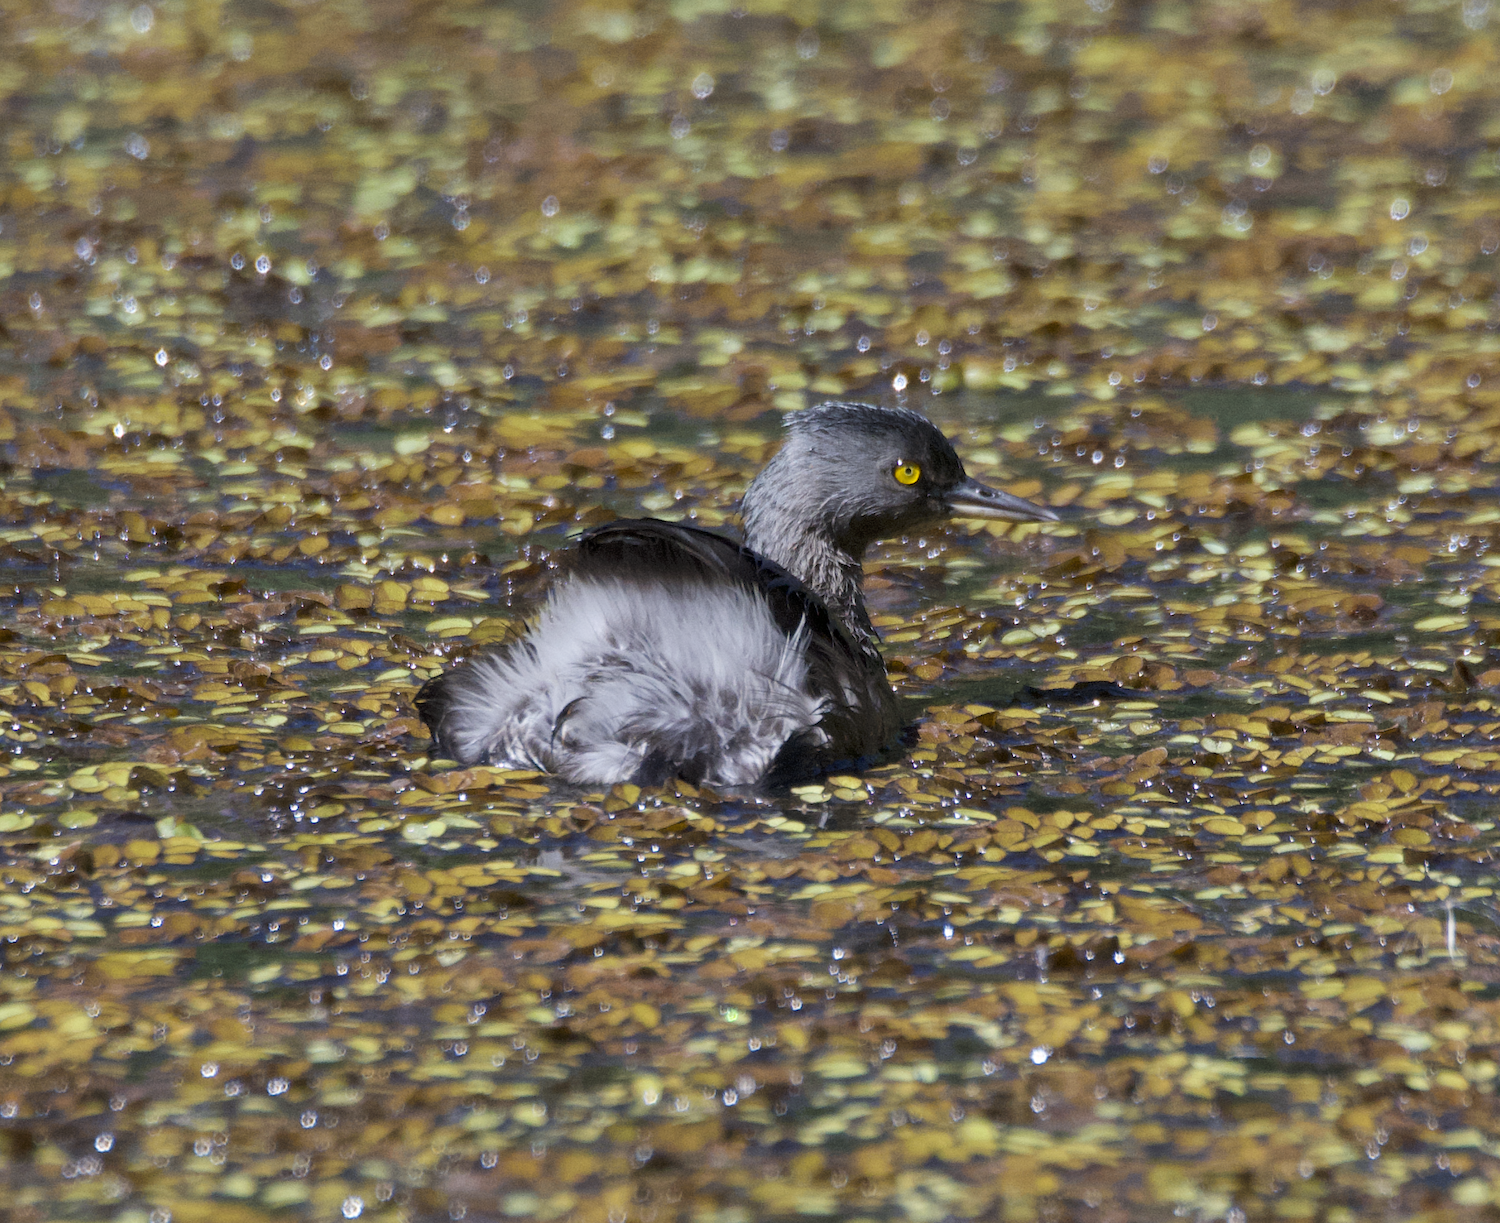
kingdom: Animalia
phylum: Chordata
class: Aves
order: Podicipediformes
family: Podicipedidae
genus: Tachybaptus
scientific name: Tachybaptus dominicus
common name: Least grebe
